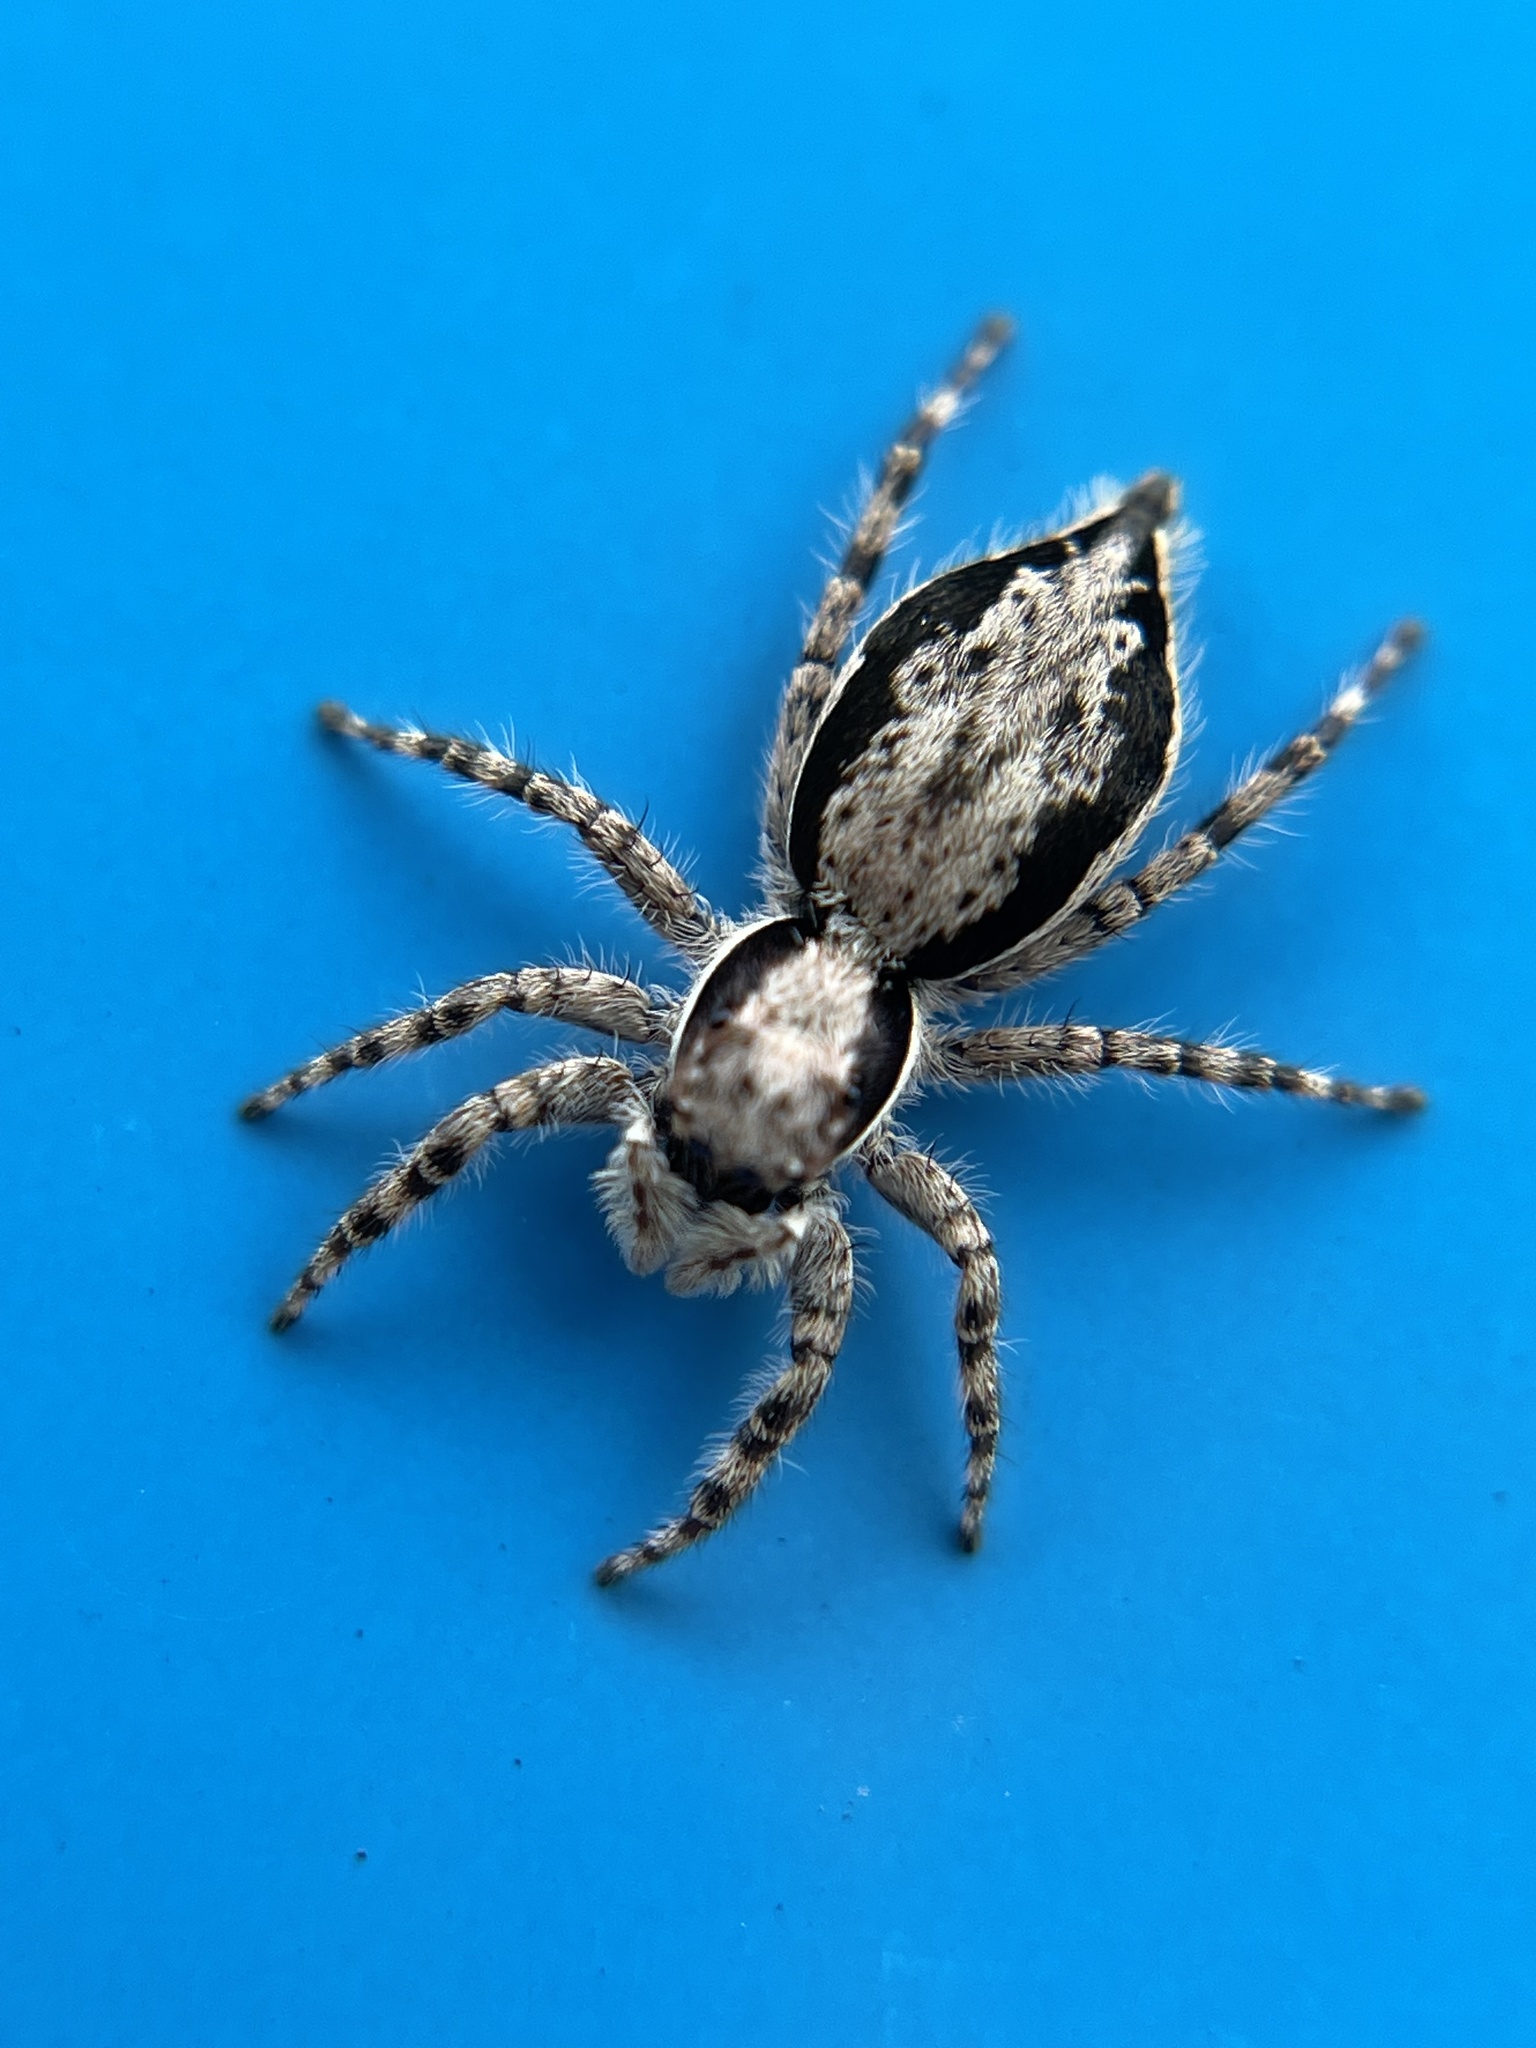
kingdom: Animalia
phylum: Arthropoda
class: Arachnida
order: Araneae
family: Salticidae
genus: Menemerus
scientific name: Menemerus bivittatus
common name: Gray wall jumper
